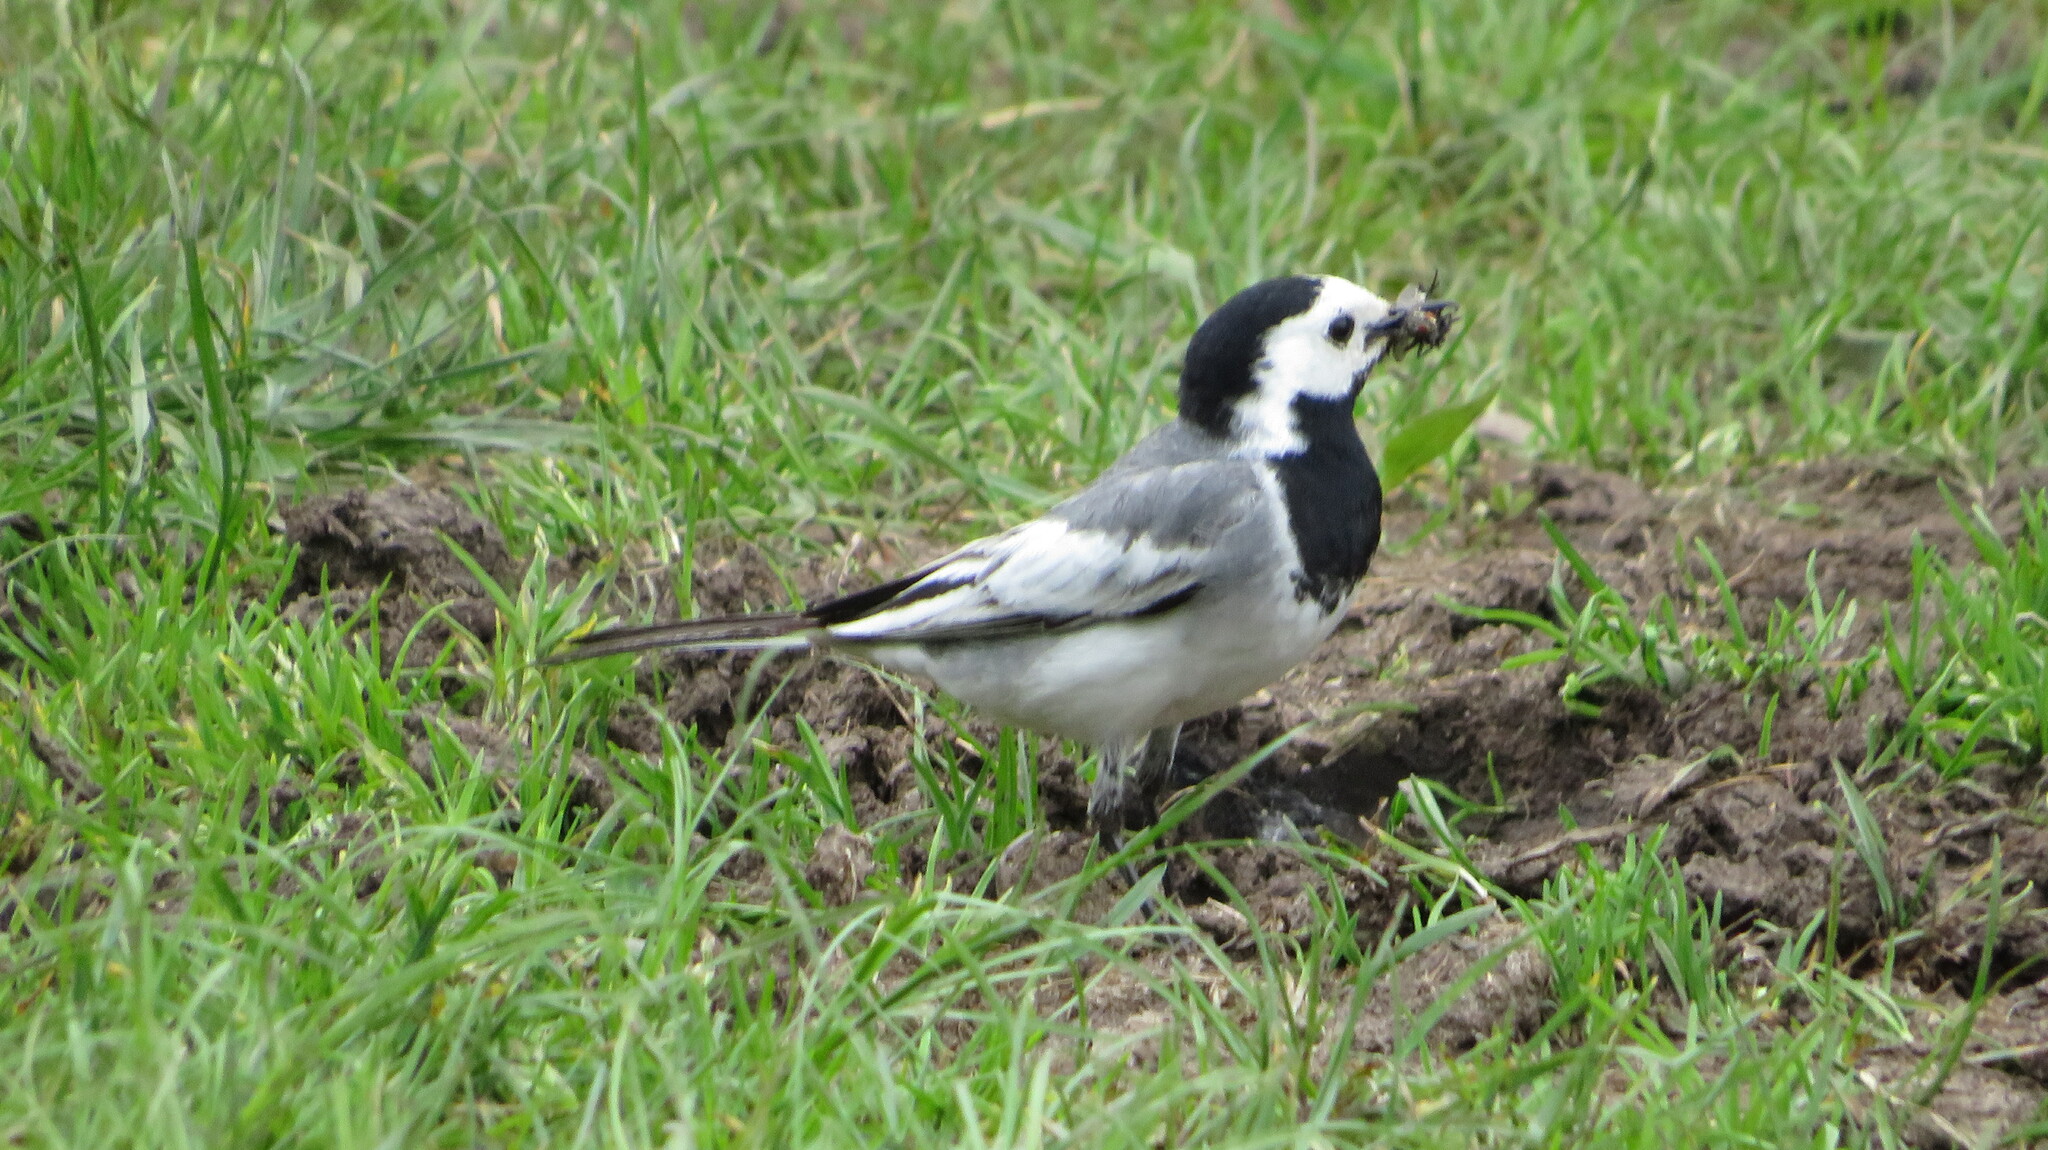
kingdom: Animalia
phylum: Chordata
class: Aves
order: Passeriformes
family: Motacillidae
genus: Motacilla
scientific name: Motacilla alba
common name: White wagtail
